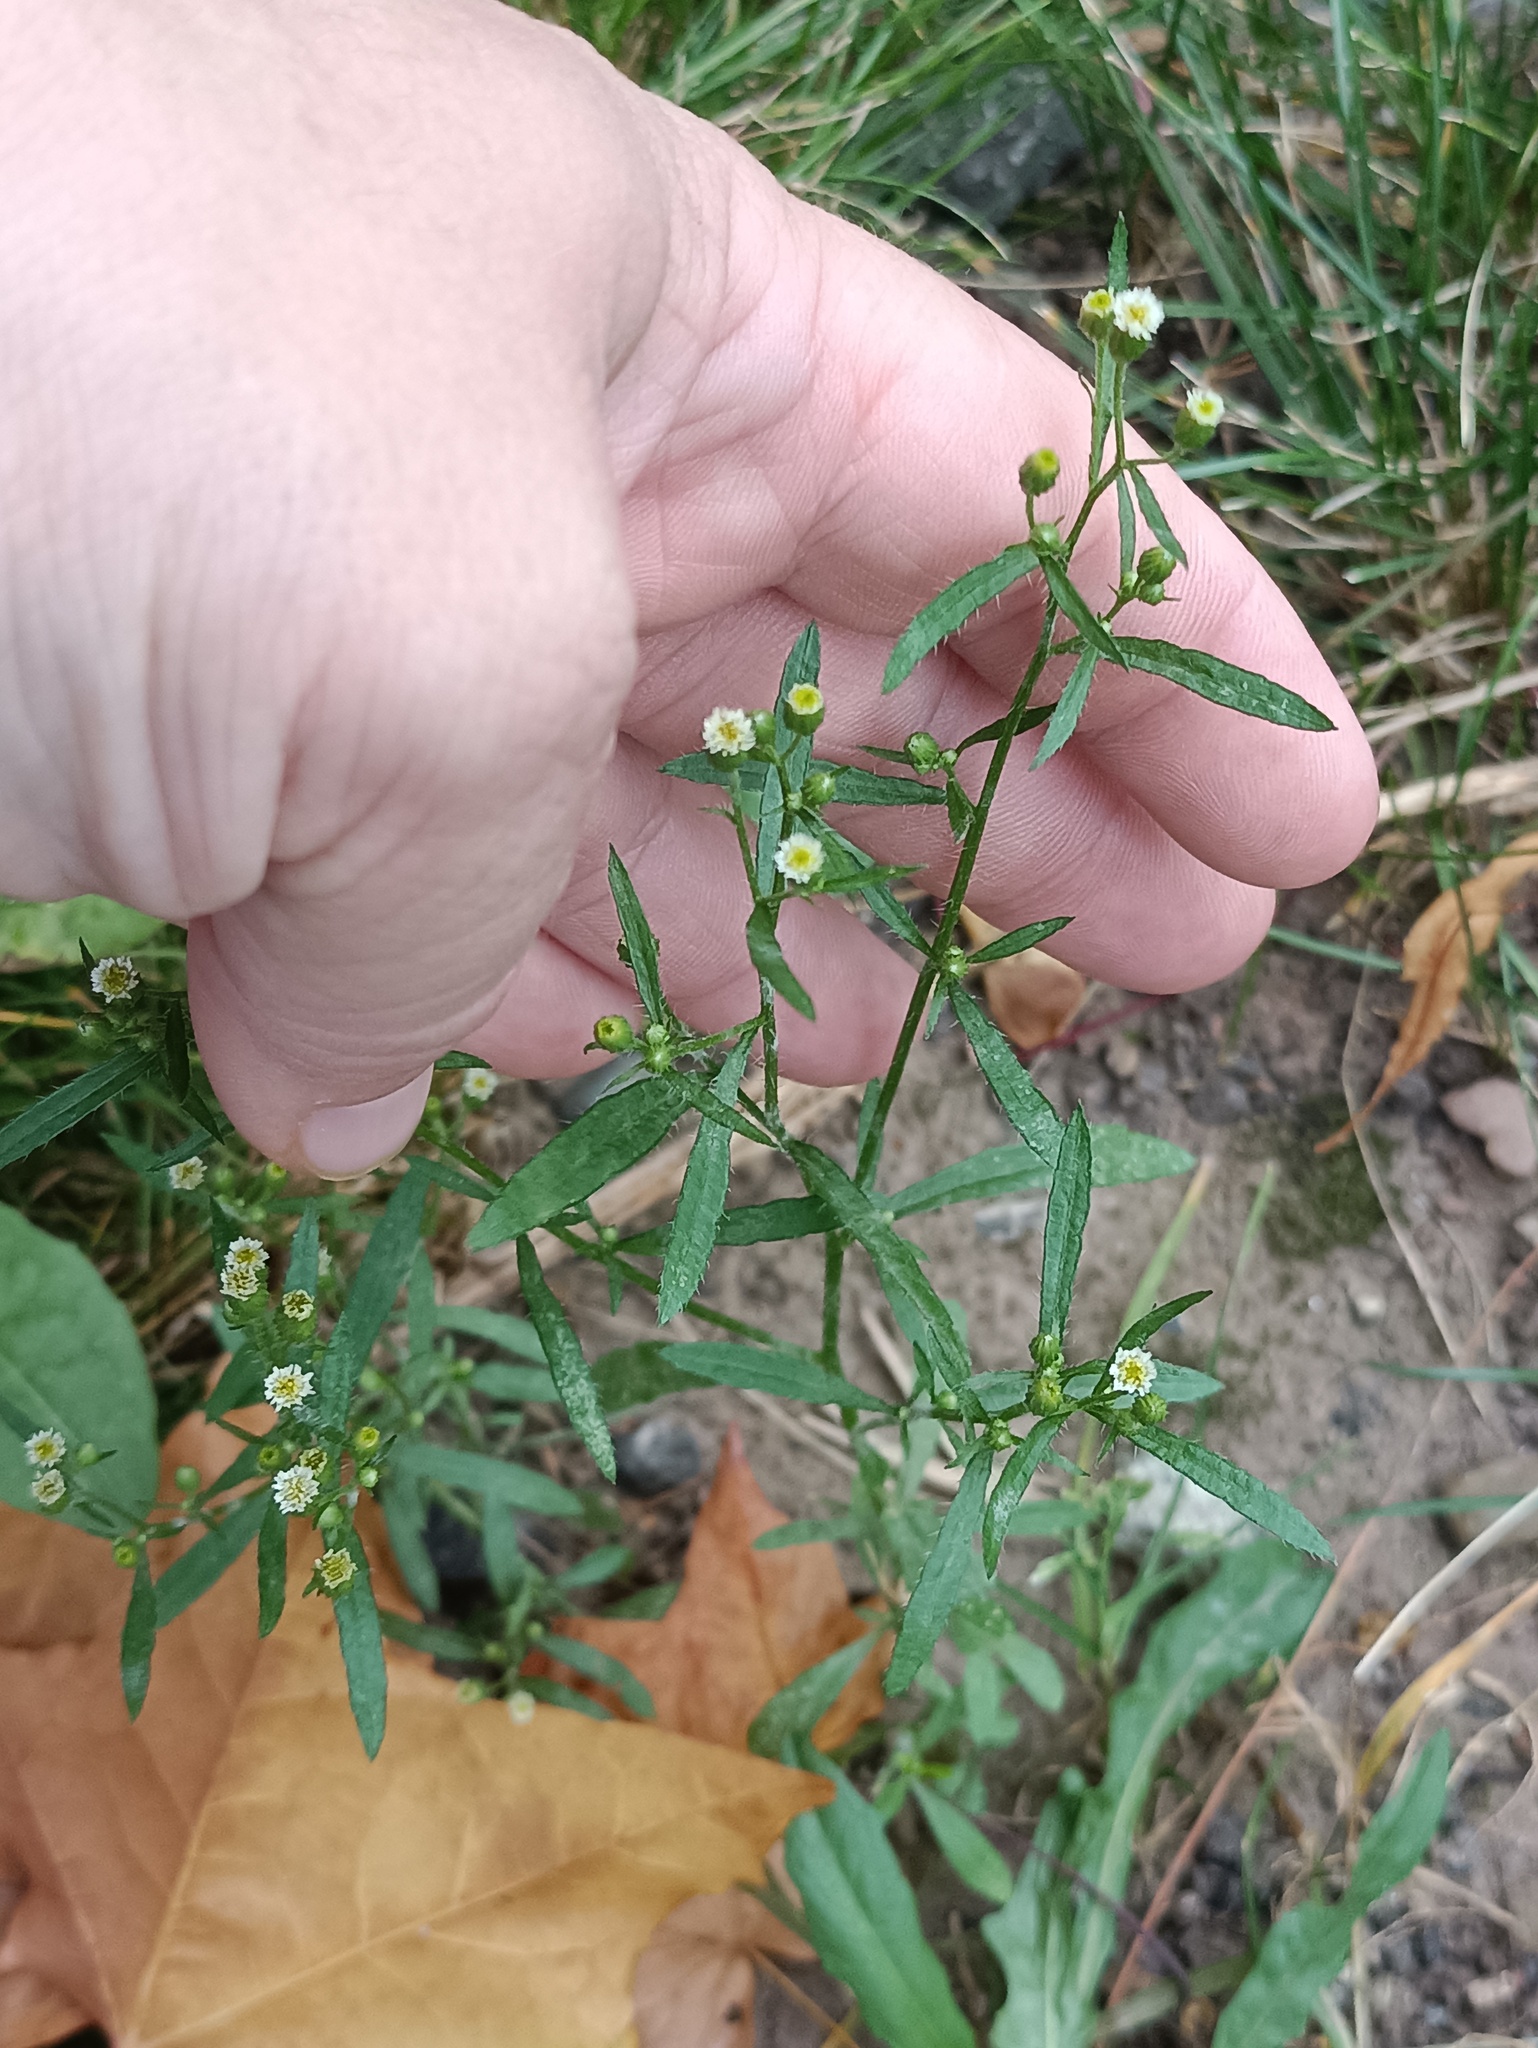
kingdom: Plantae
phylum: Tracheophyta
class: Magnoliopsida
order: Asterales
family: Asteraceae
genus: Erigeron
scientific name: Erigeron canadensis
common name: Canadian fleabane
